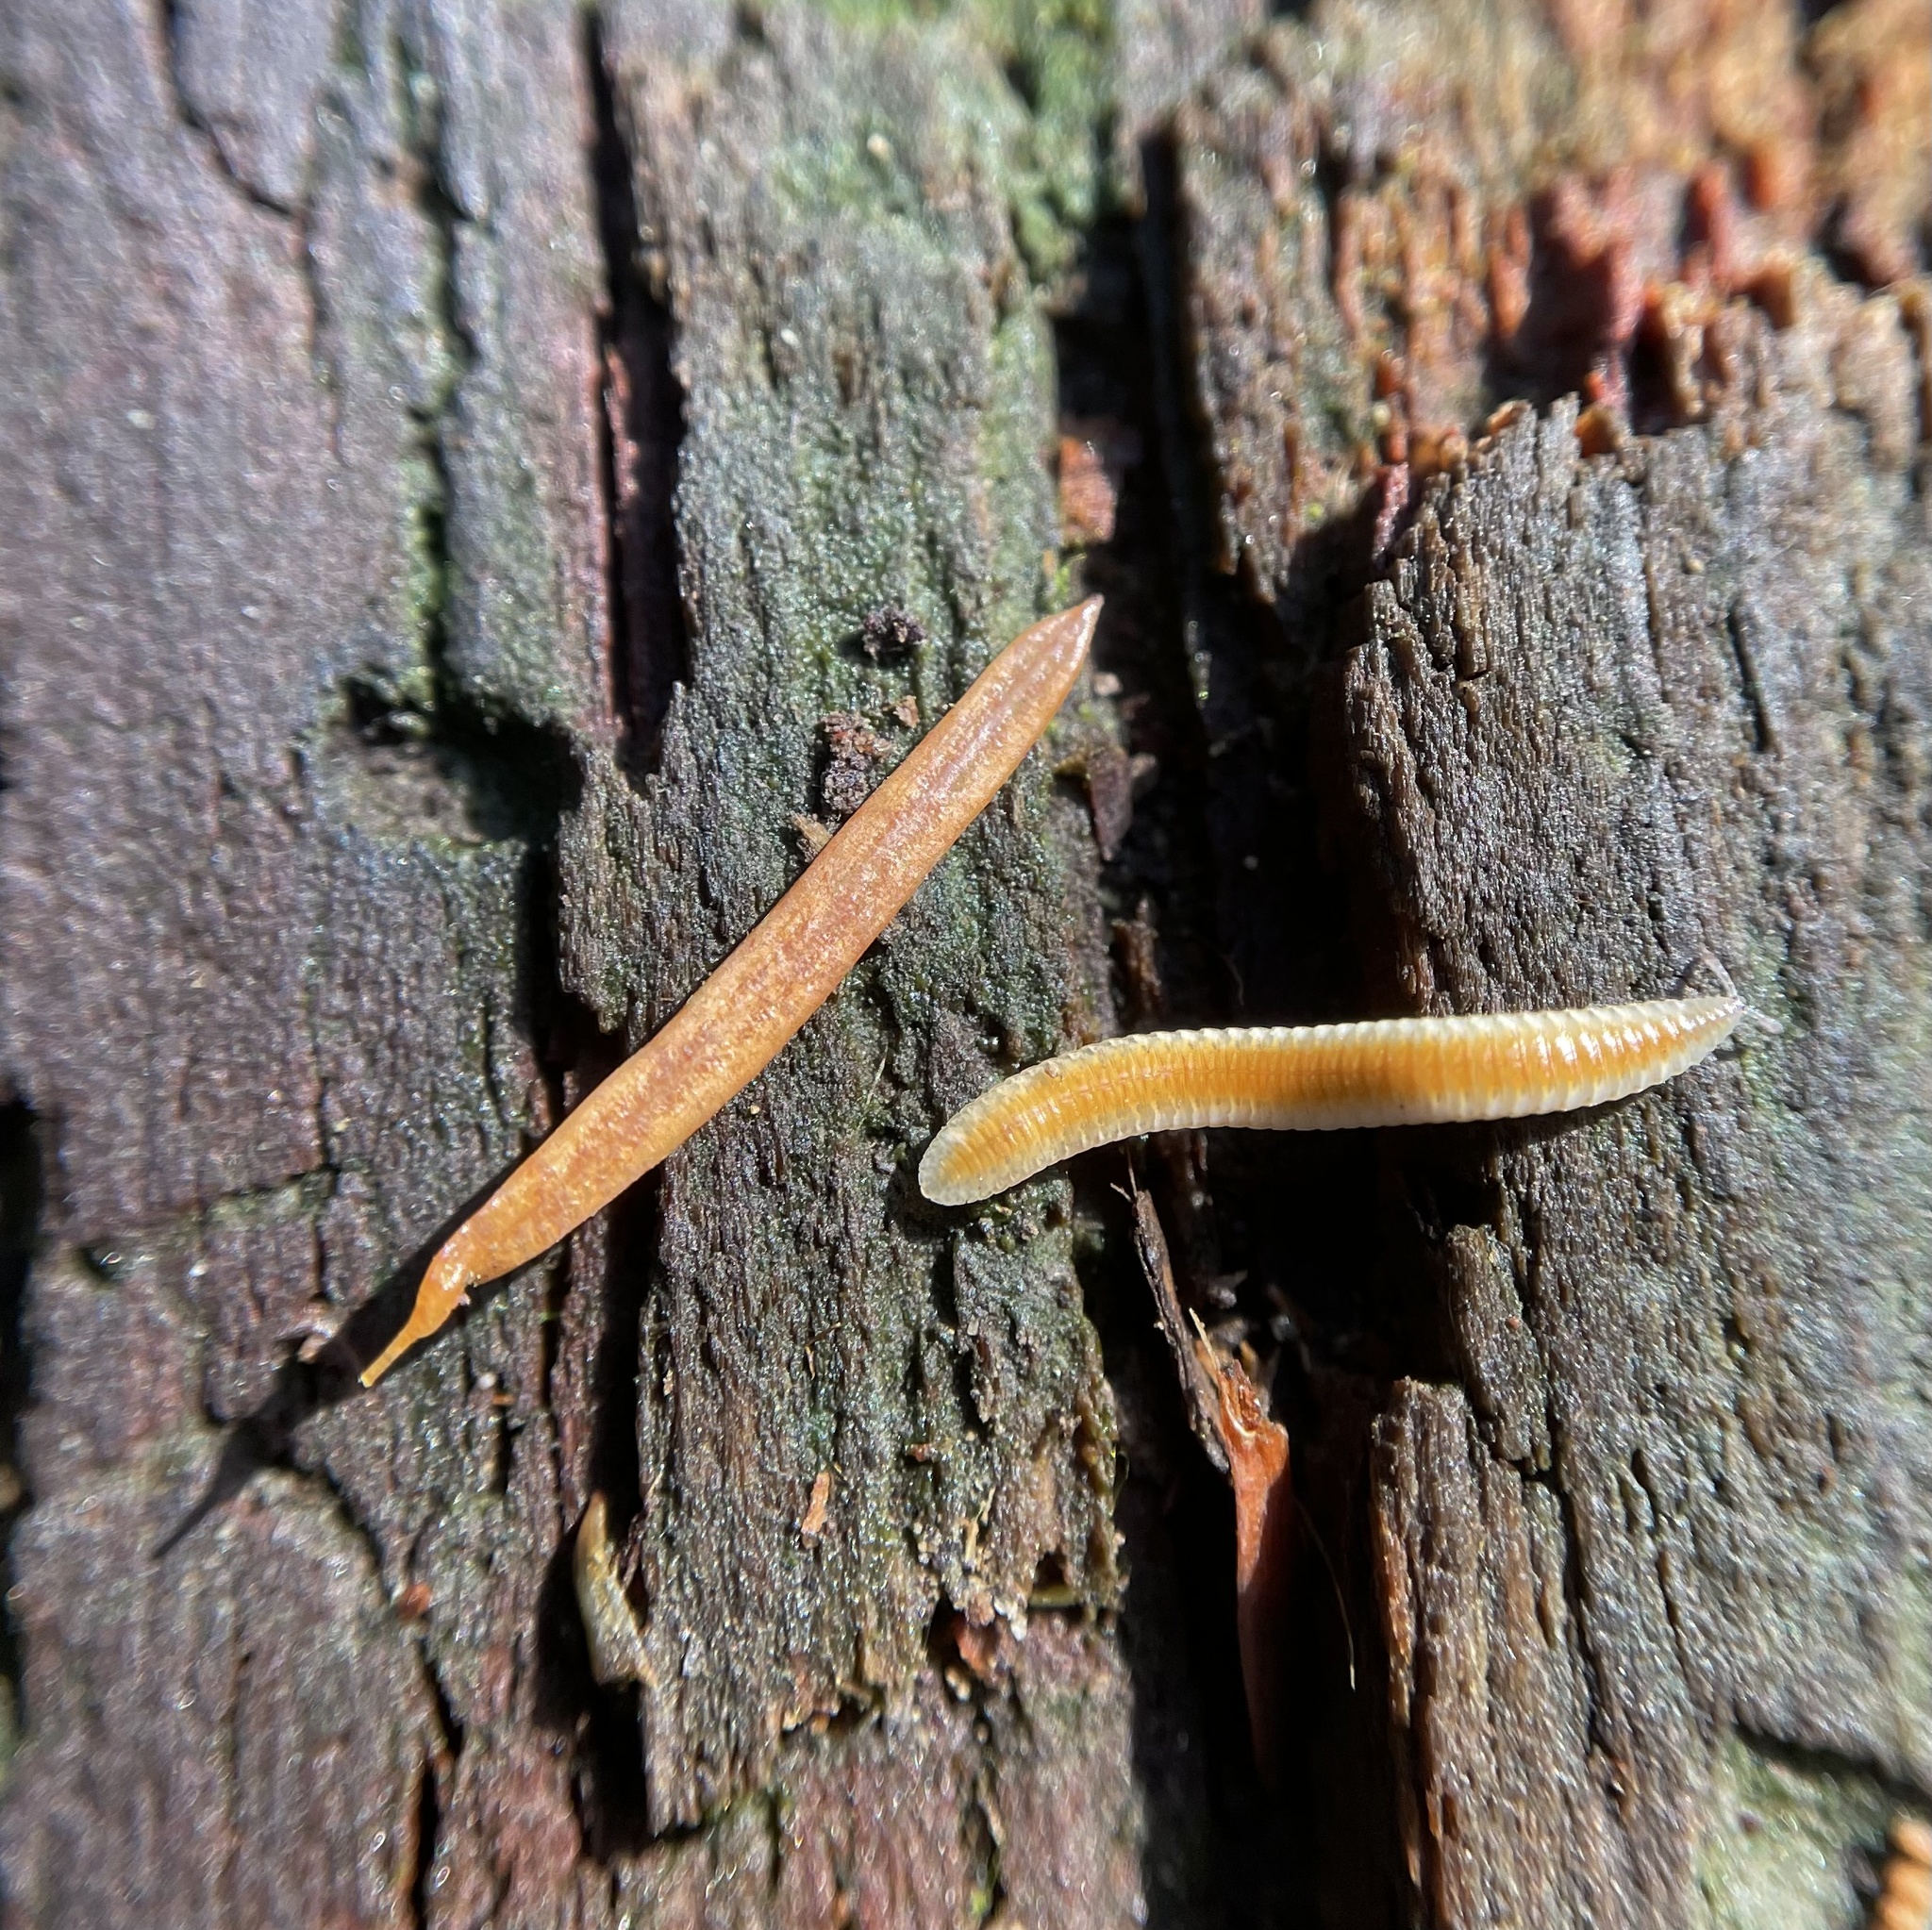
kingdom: Animalia
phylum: Arthropoda
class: Diplopoda
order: Polyzoniida
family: Polyzoniidae
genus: Stenozonium
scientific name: Stenozonium exile
